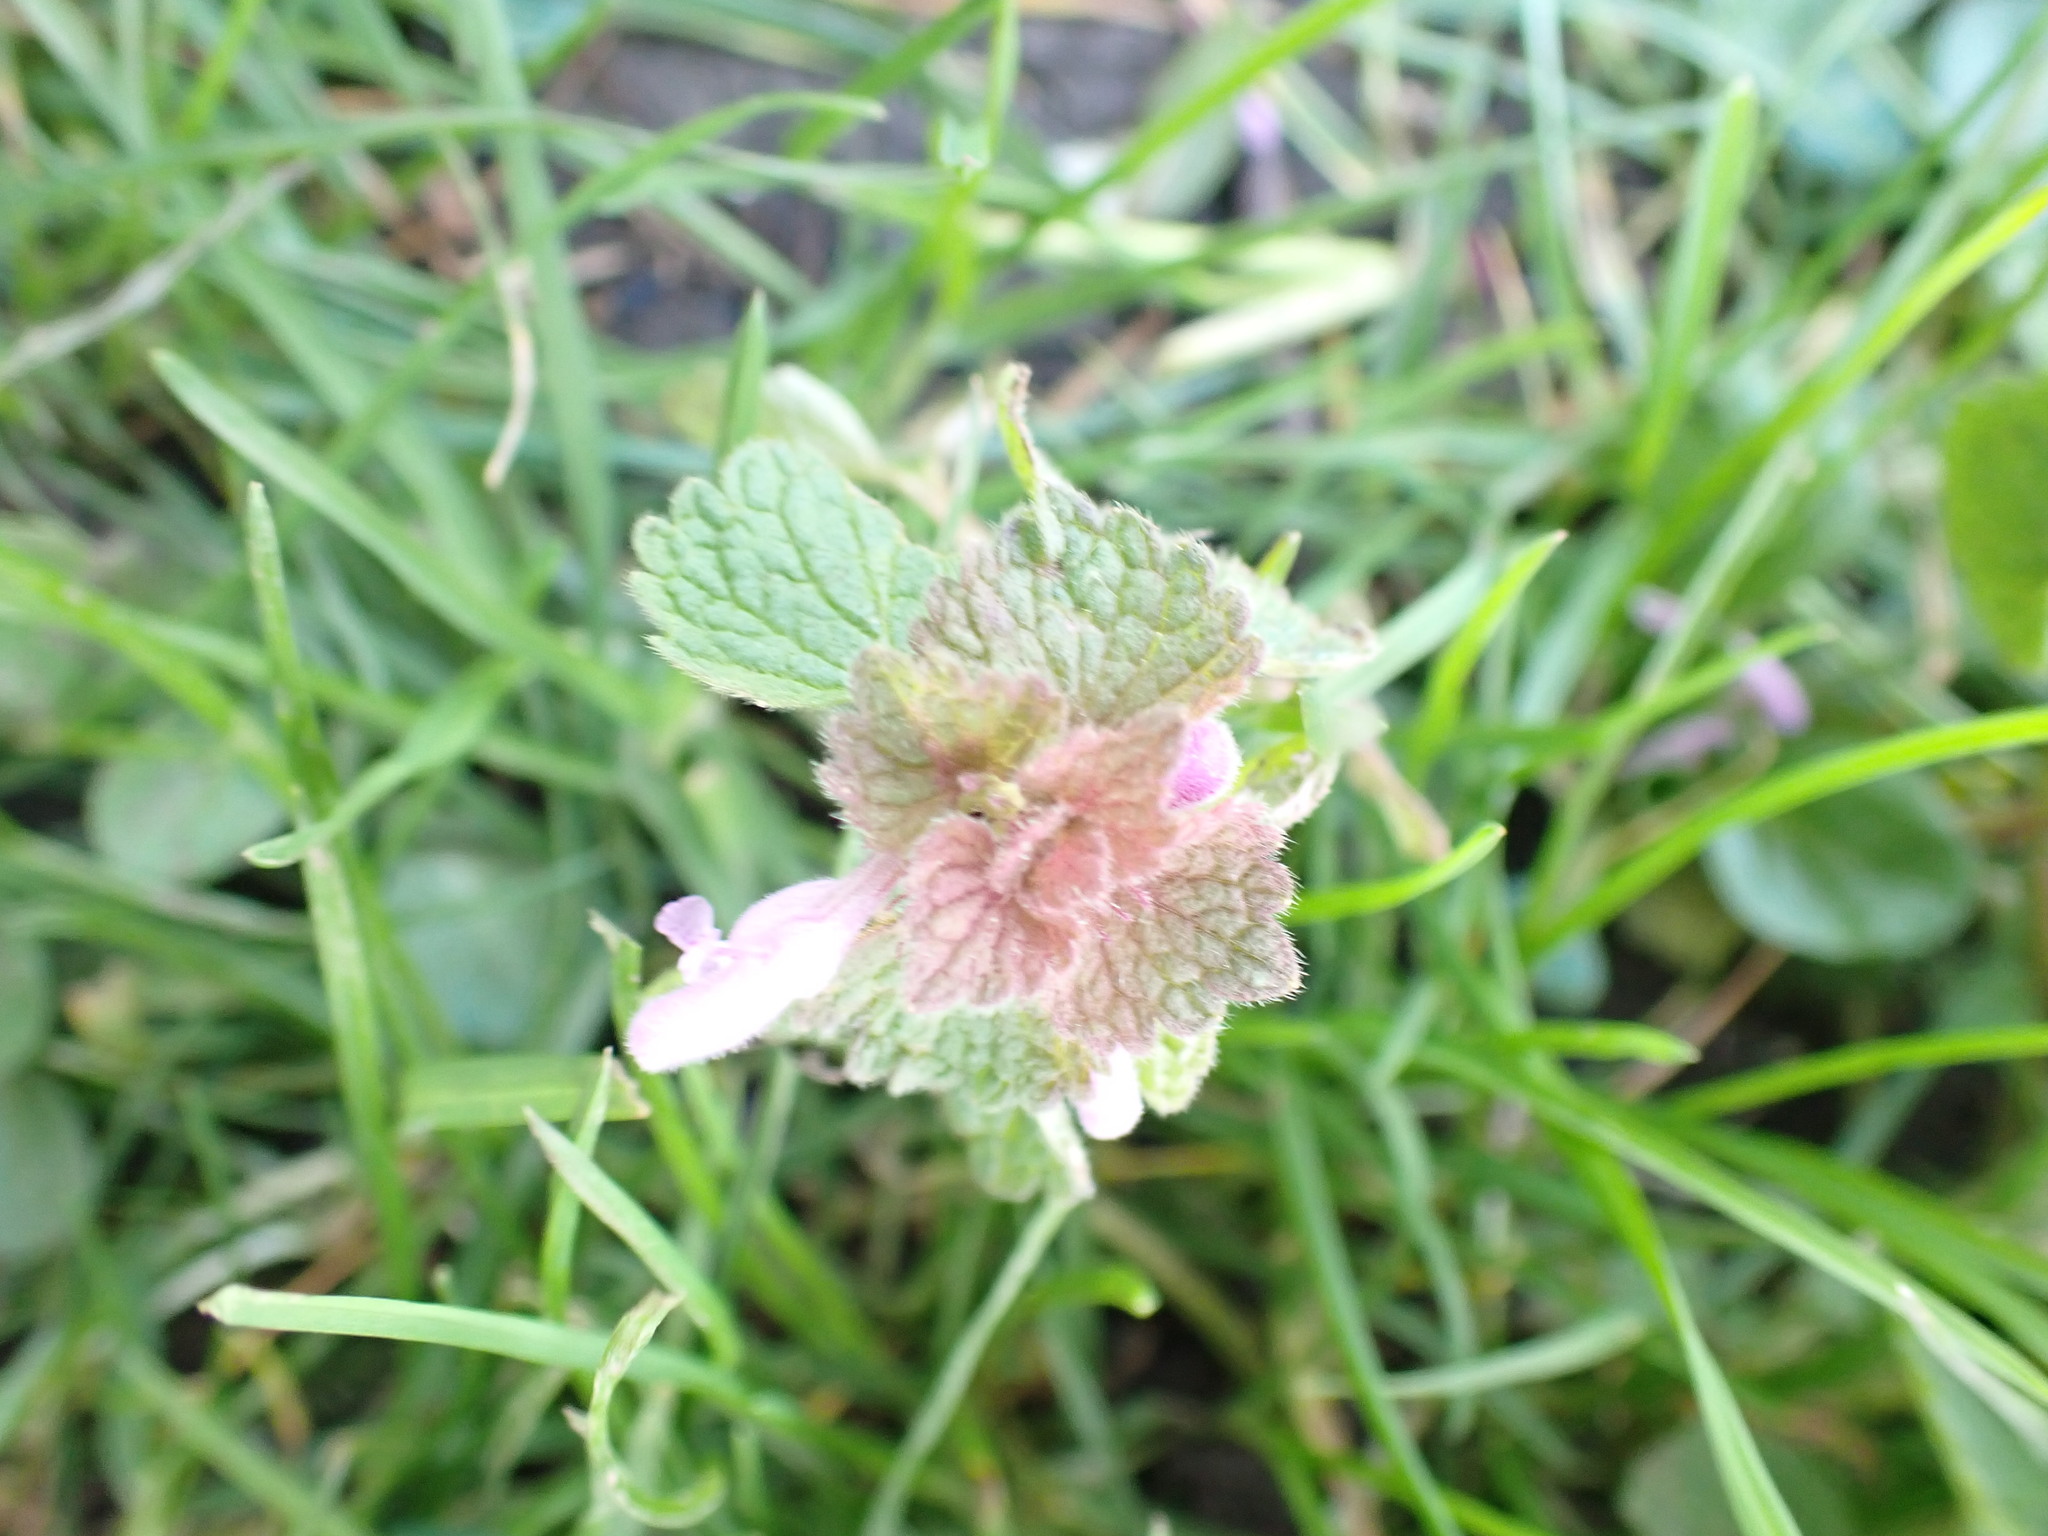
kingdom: Plantae
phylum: Tracheophyta
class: Magnoliopsida
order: Lamiales
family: Lamiaceae
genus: Lamium
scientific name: Lamium purpureum
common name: Red dead-nettle
